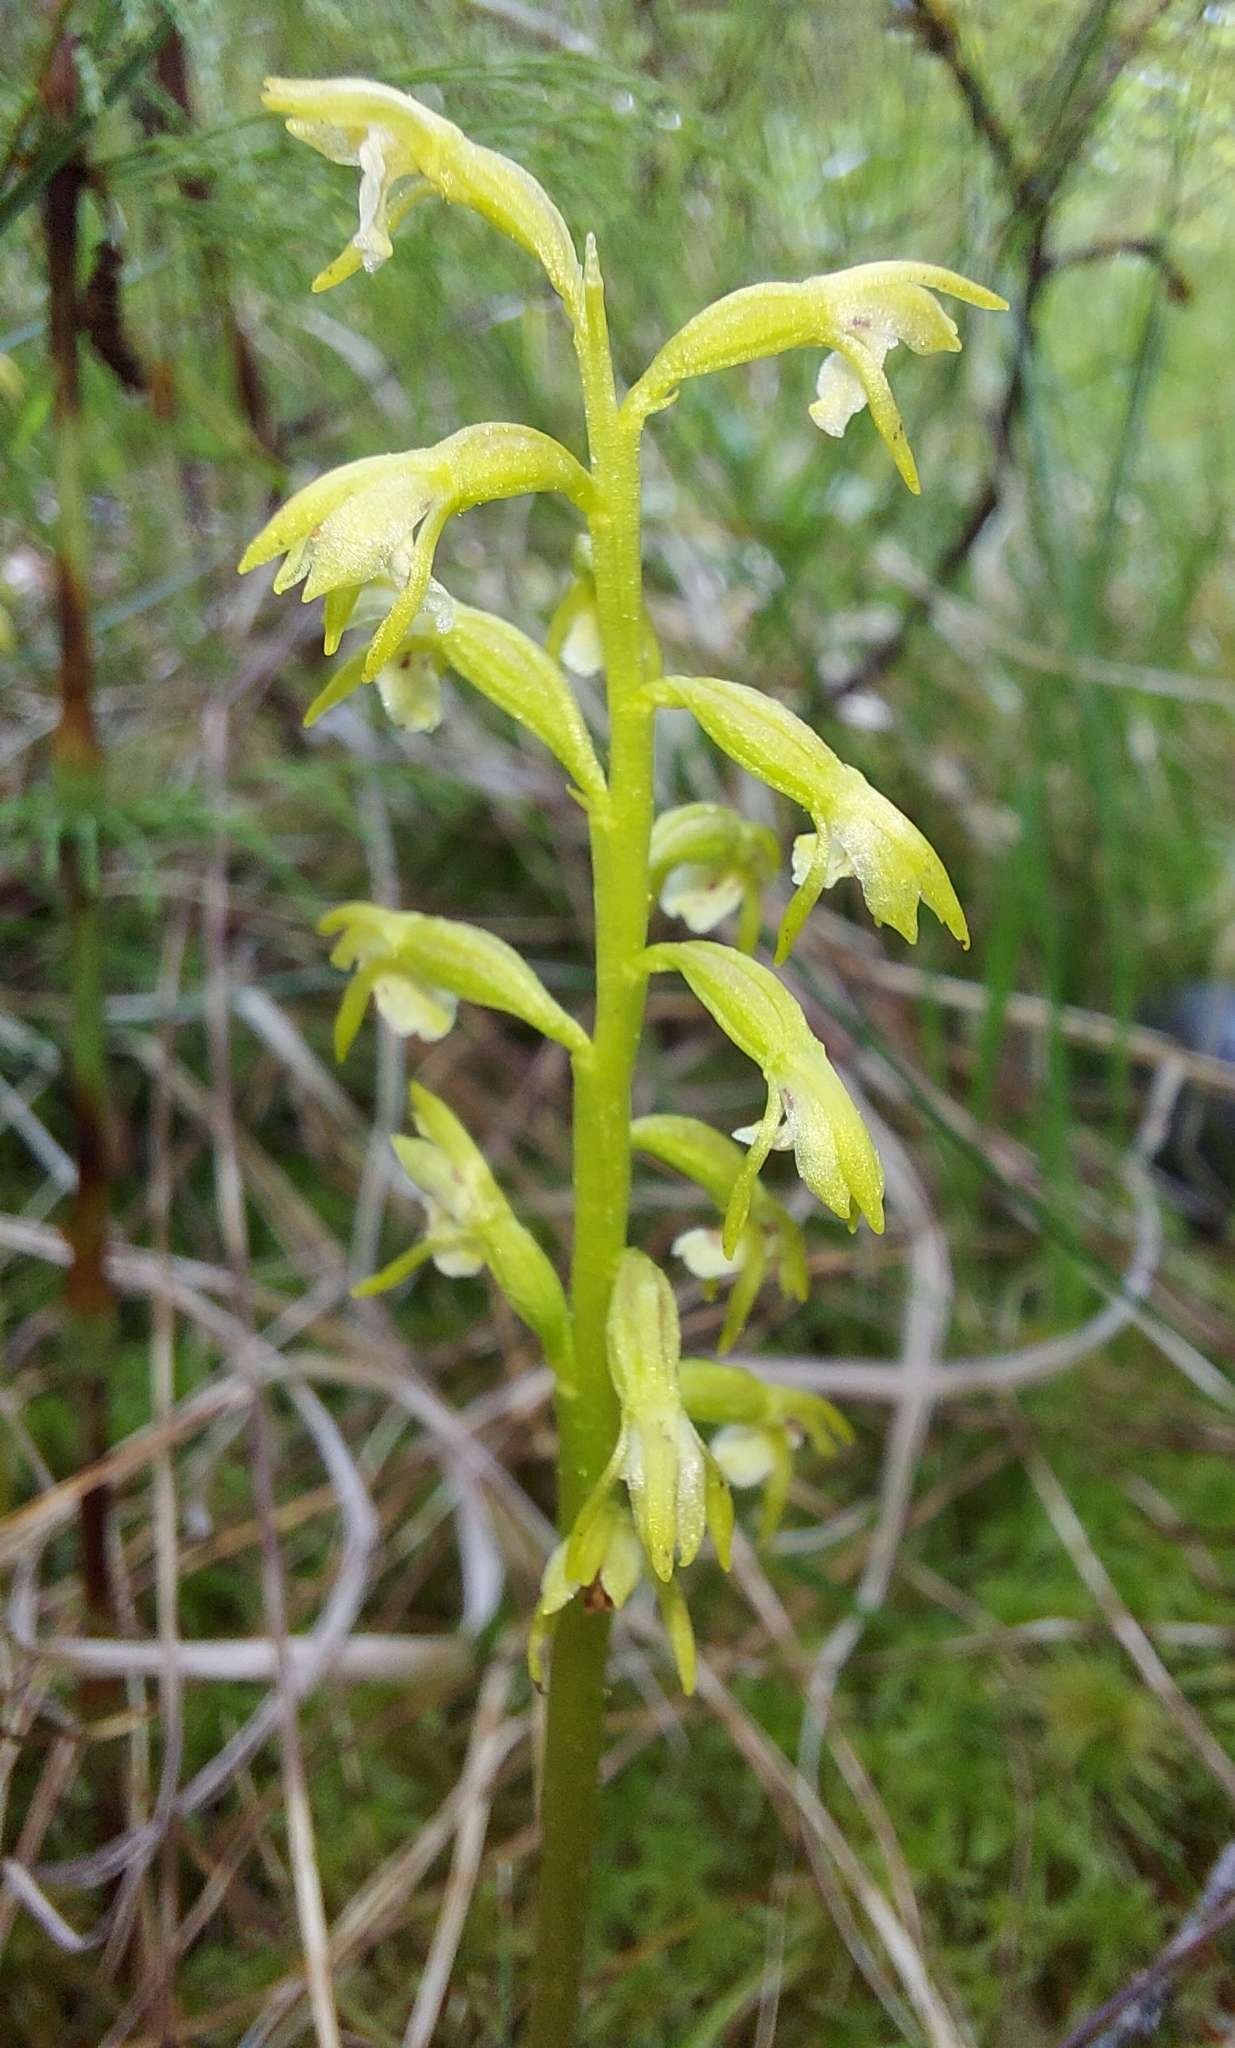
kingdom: Plantae
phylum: Tracheophyta
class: Liliopsida
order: Asparagales
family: Orchidaceae
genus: Corallorhiza
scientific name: Corallorhiza trifida
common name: Yellow coralroot
